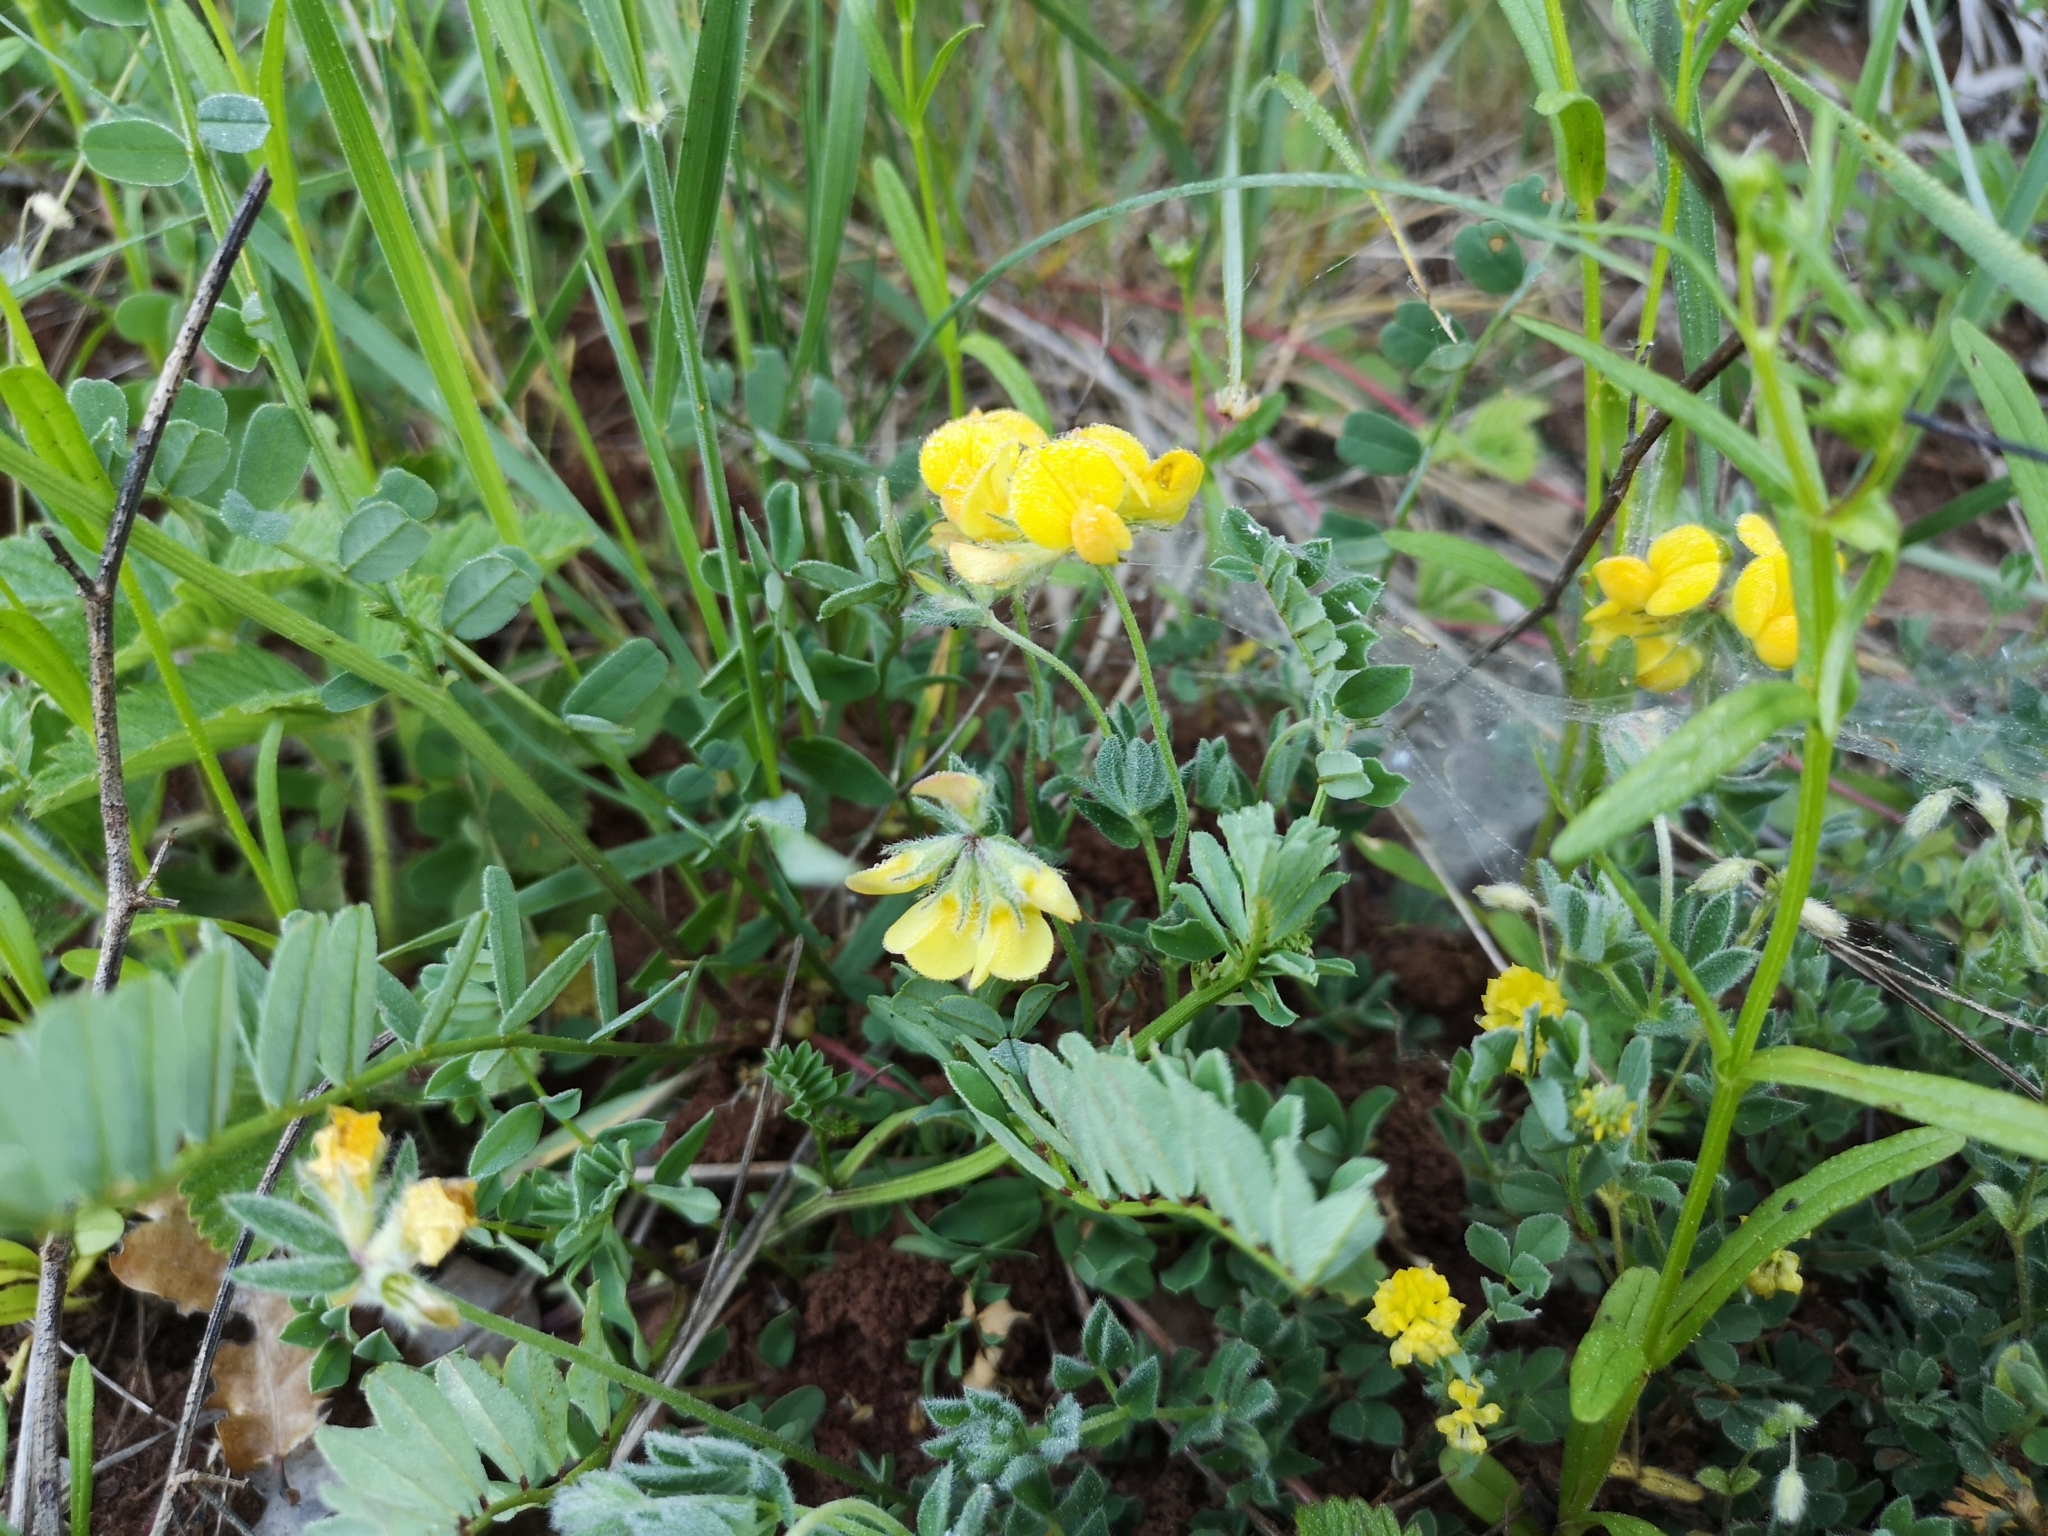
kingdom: Plantae
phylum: Tracheophyta
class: Magnoliopsida
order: Fabales
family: Fabaceae
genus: Hippocrepis
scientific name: Hippocrepis comosa
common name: Horseshoe vetch
